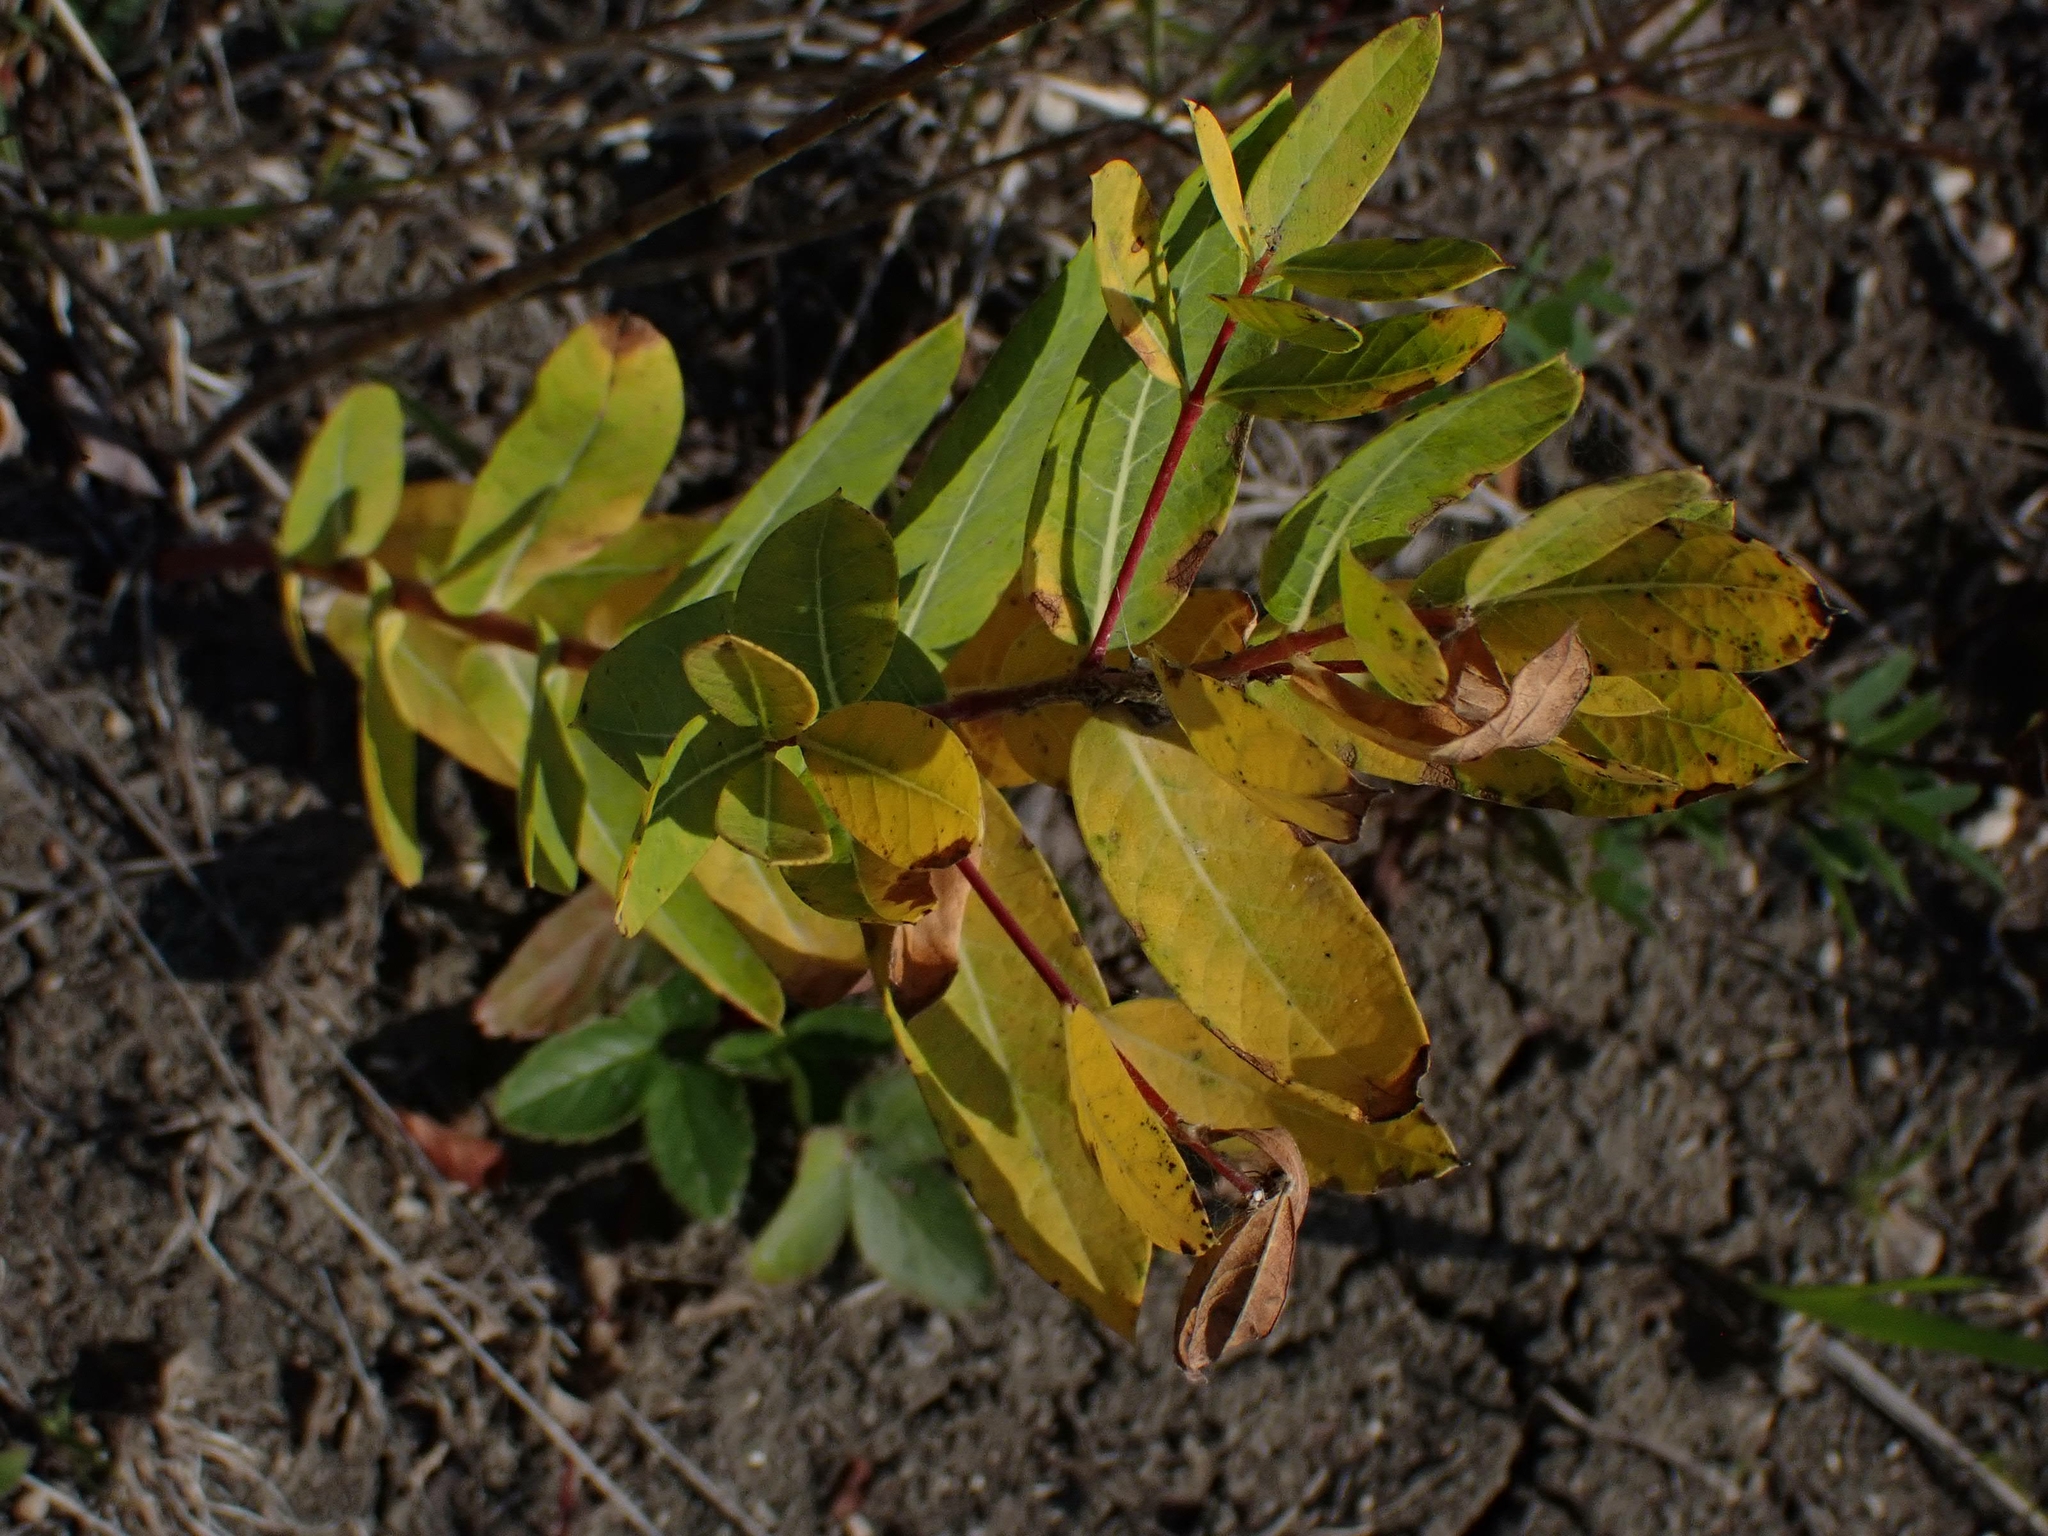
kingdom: Plantae
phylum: Tracheophyta
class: Magnoliopsida
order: Gentianales
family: Apocynaceae
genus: Apocynum
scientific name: Apocynum cannabinum
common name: Hemp dogbane
